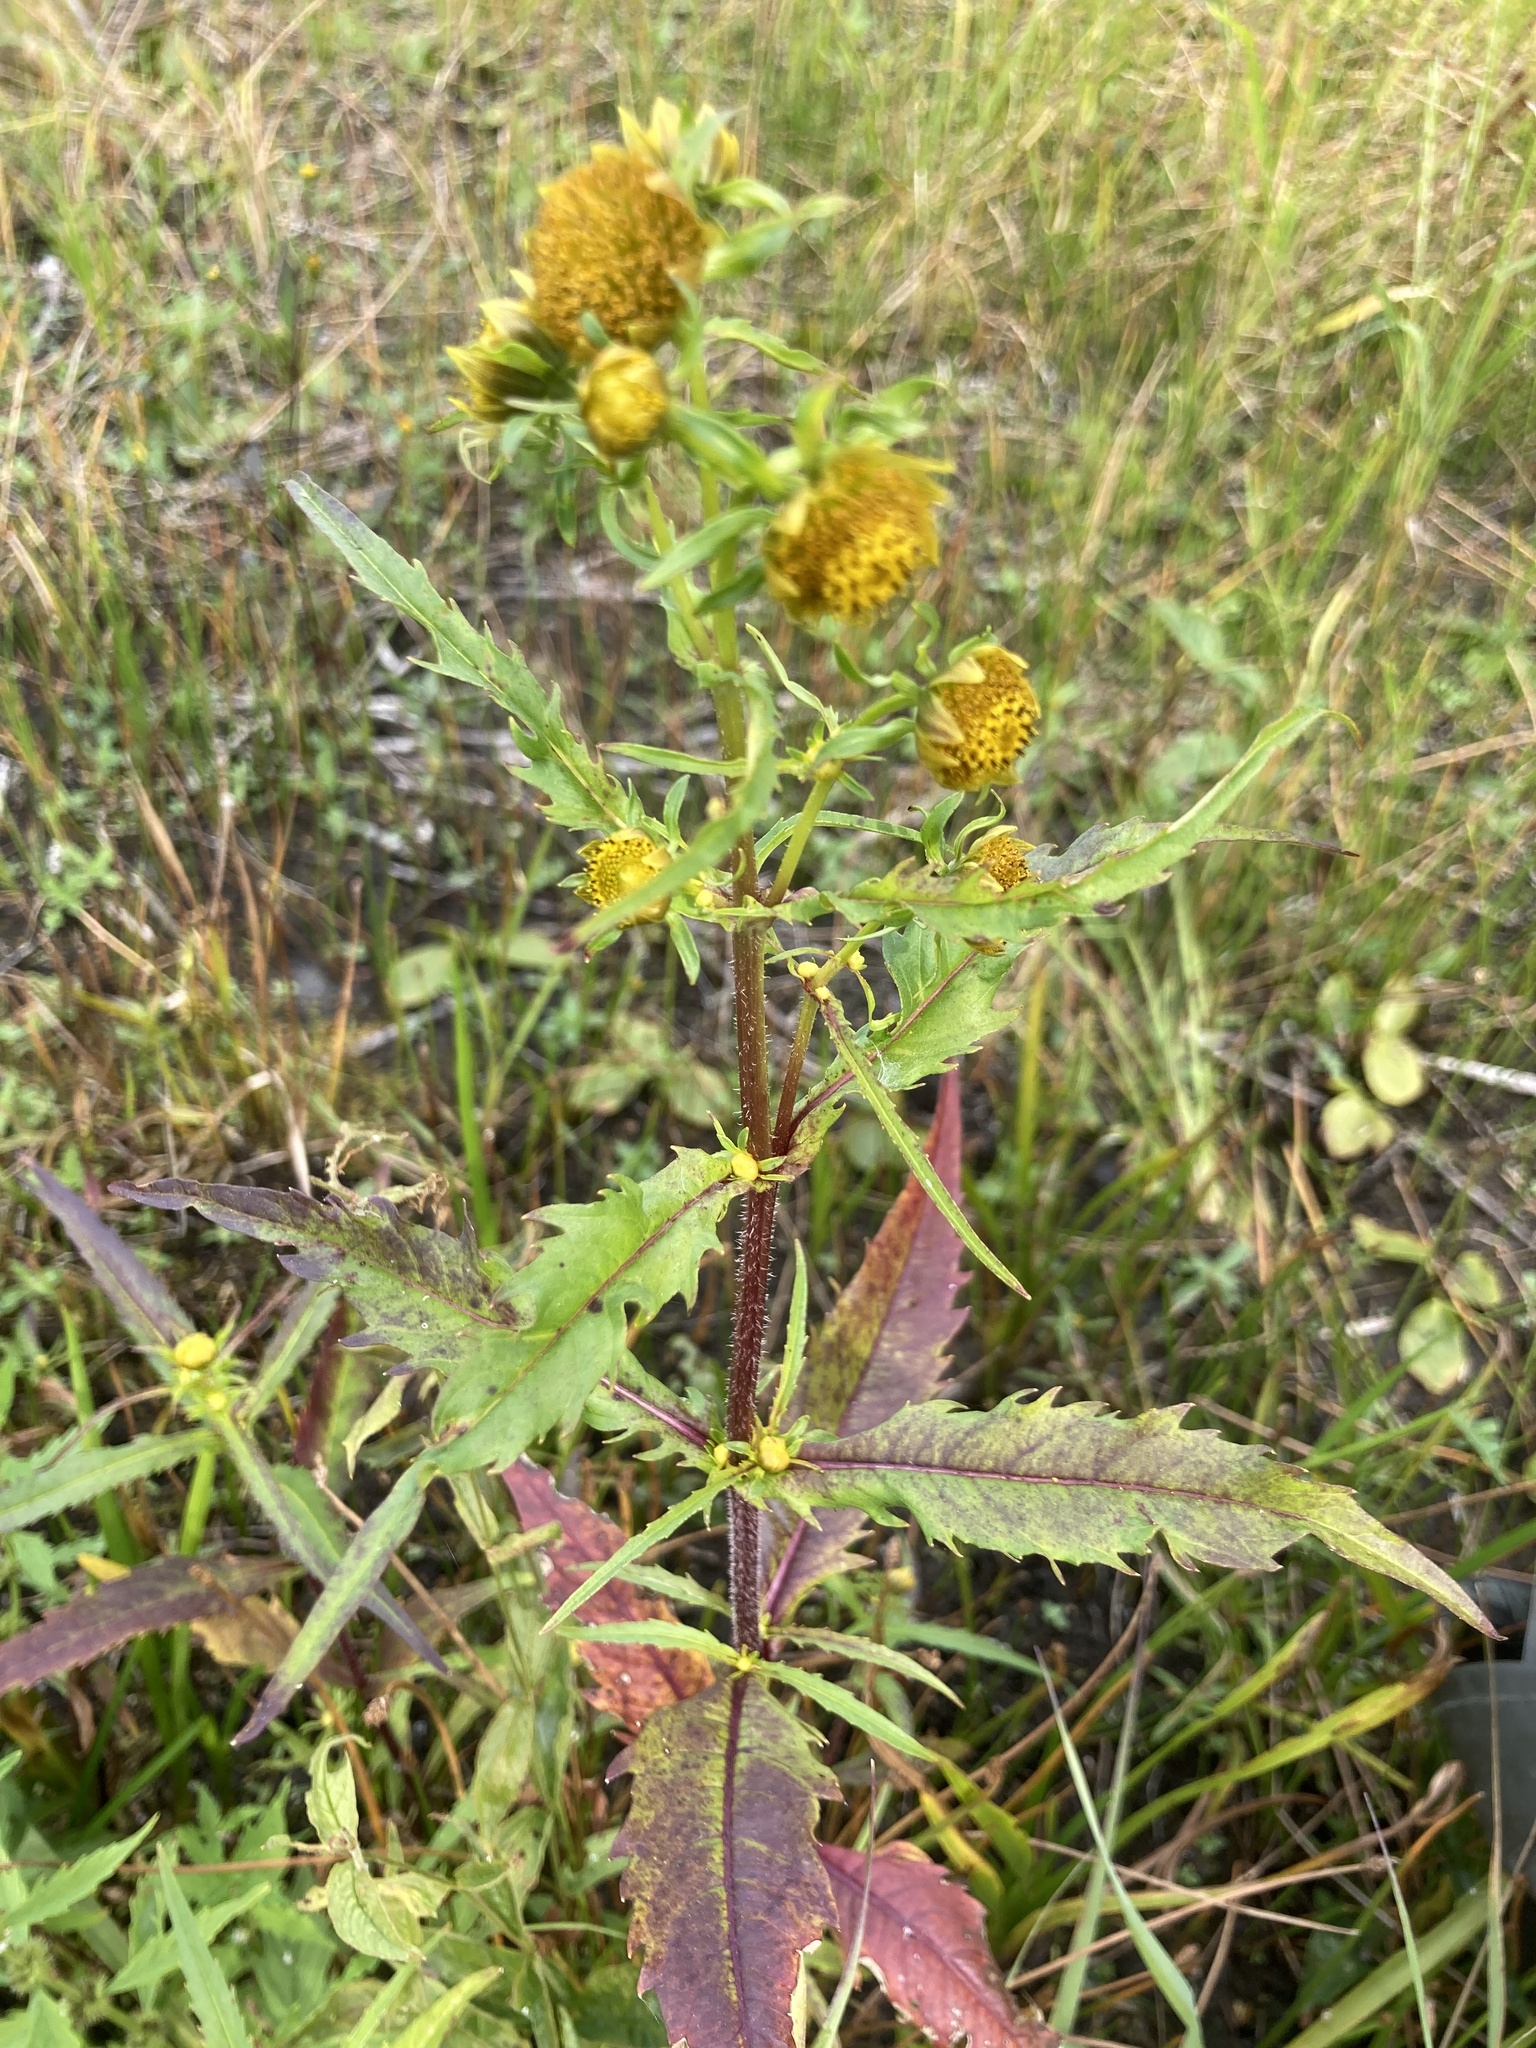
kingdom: Plantae
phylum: Tracheophyta
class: Magnoliopsida
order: Asterales
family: Asteraceae
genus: Bidens
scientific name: Bidens cernua
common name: Nodding bur-marigold
